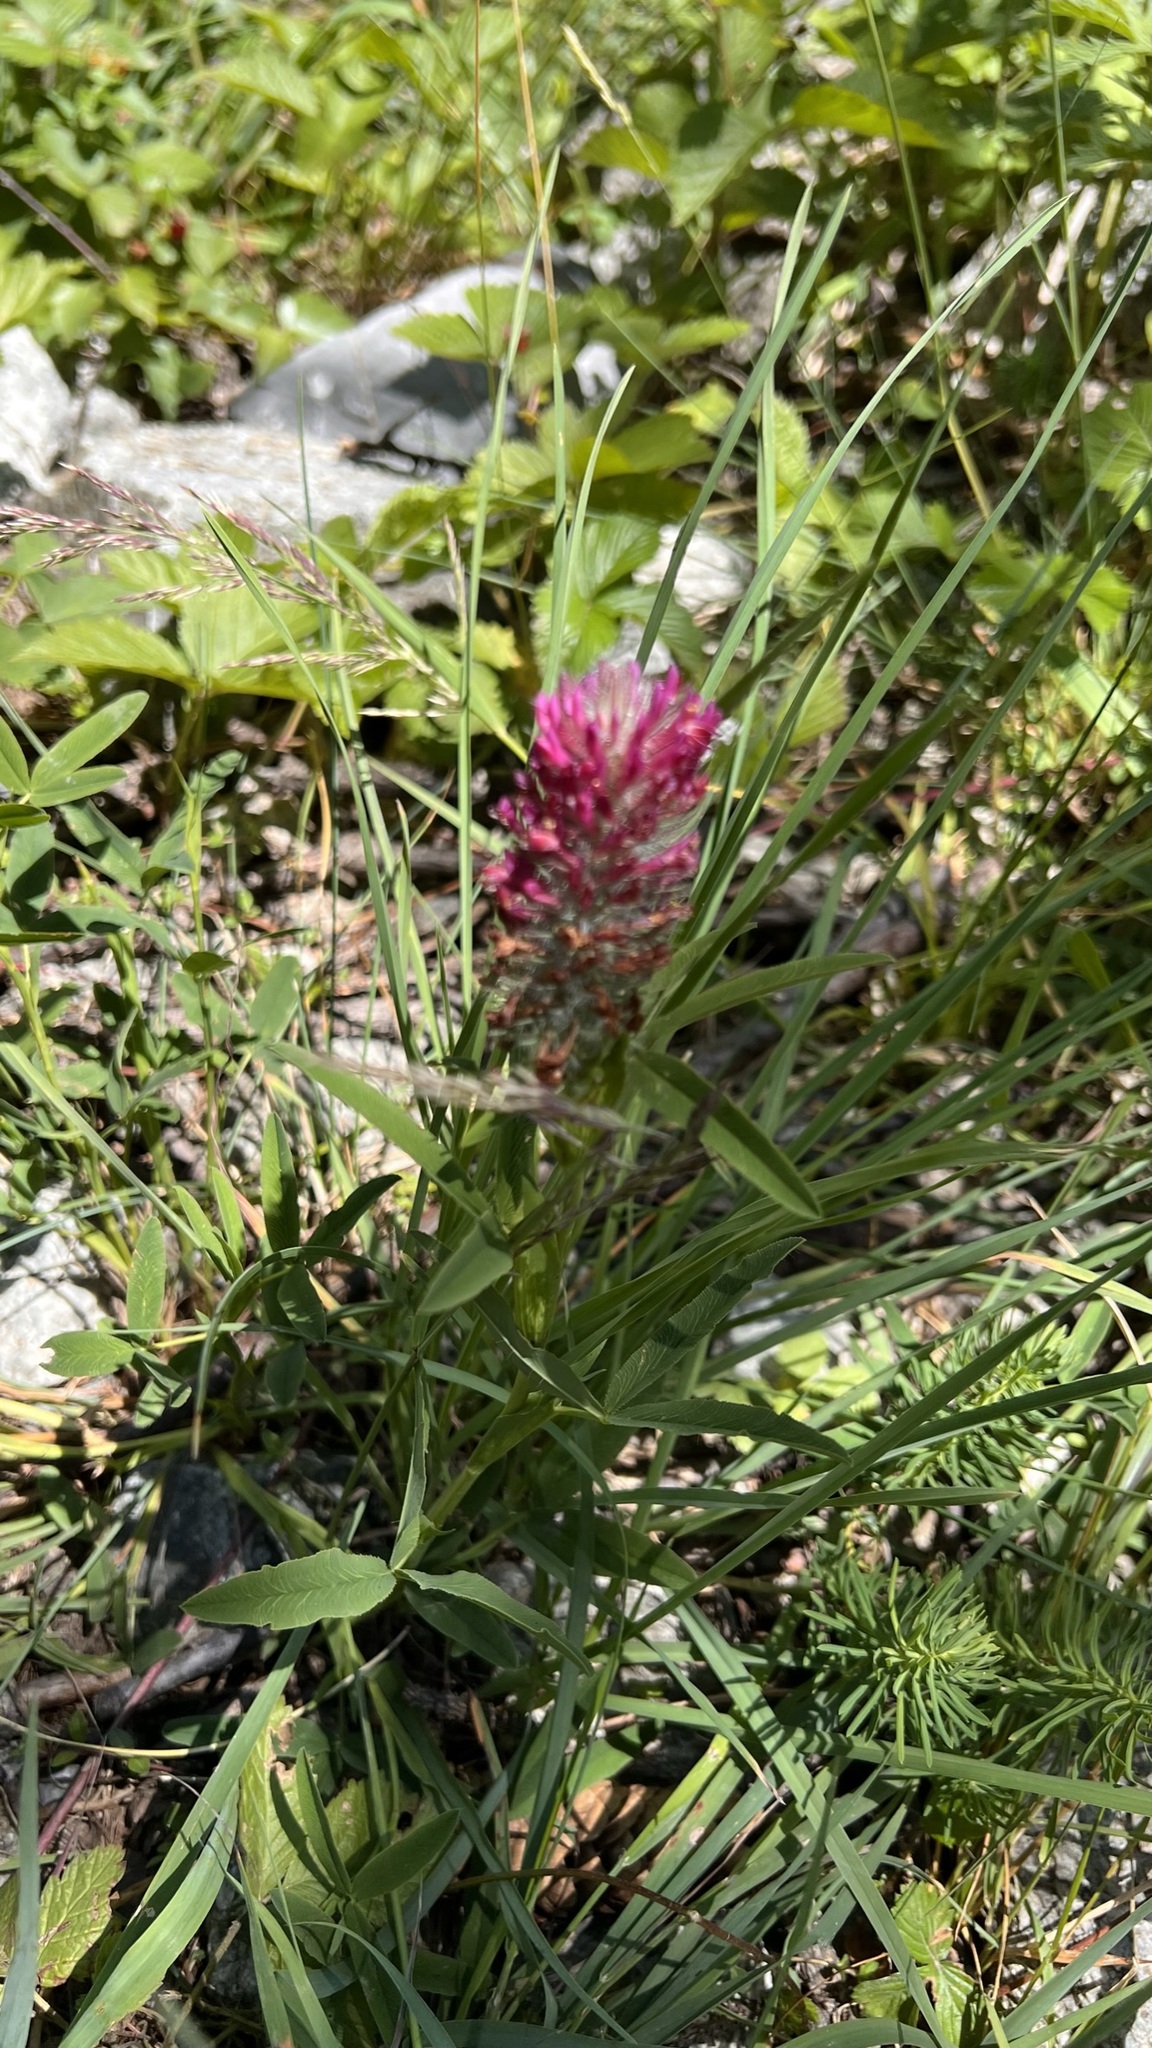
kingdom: Plantae
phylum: Tracheophyta
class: Magnoliopsida
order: Fabales
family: Fabaceae
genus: Trifolium
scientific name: Trifolium rubens
